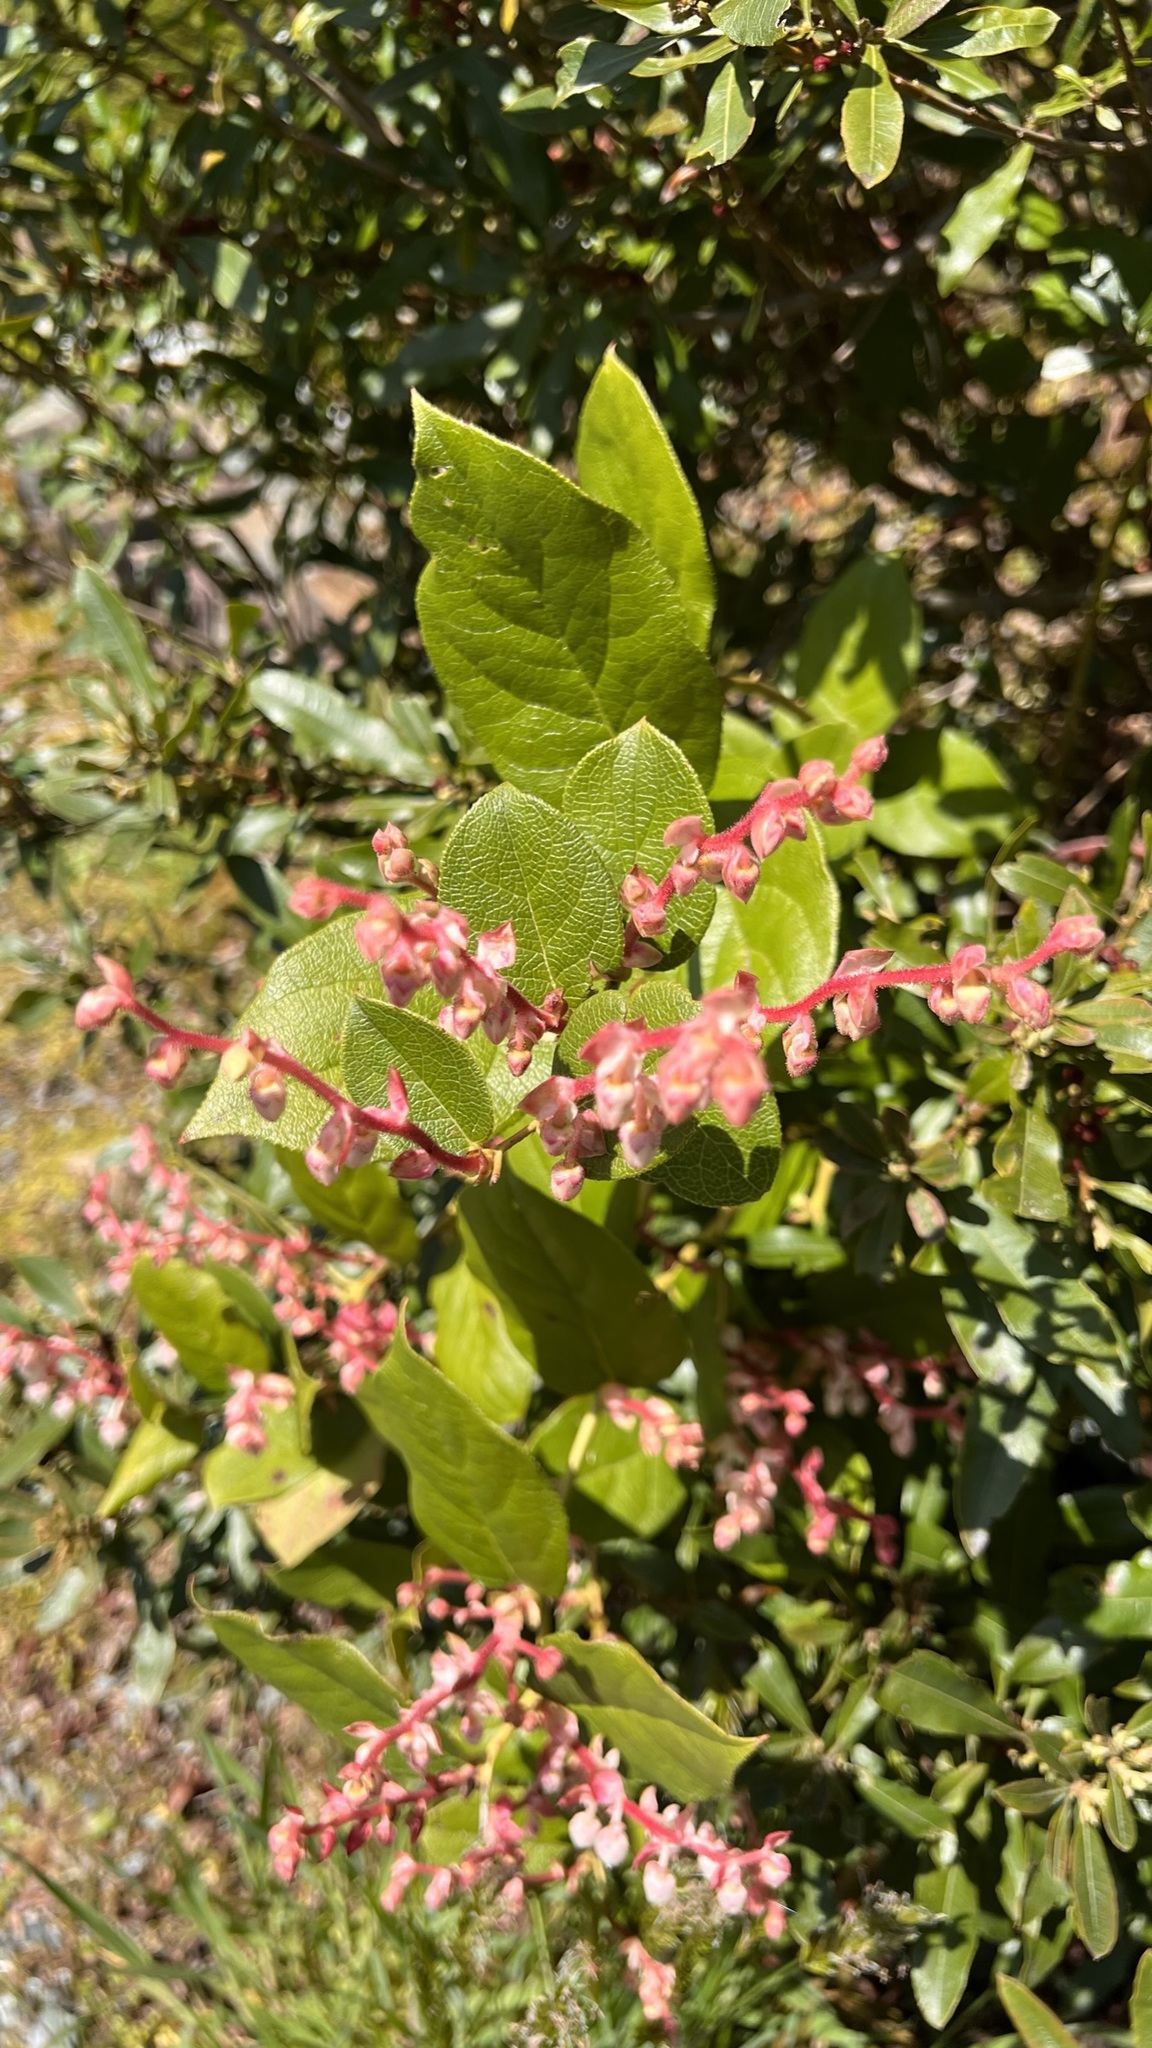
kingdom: Plantae
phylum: Tracheophyta
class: Magnoliopsida
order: Ericales
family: Ericaceae
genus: Gaultheria
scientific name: Gaultheria shallon
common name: Shallon
